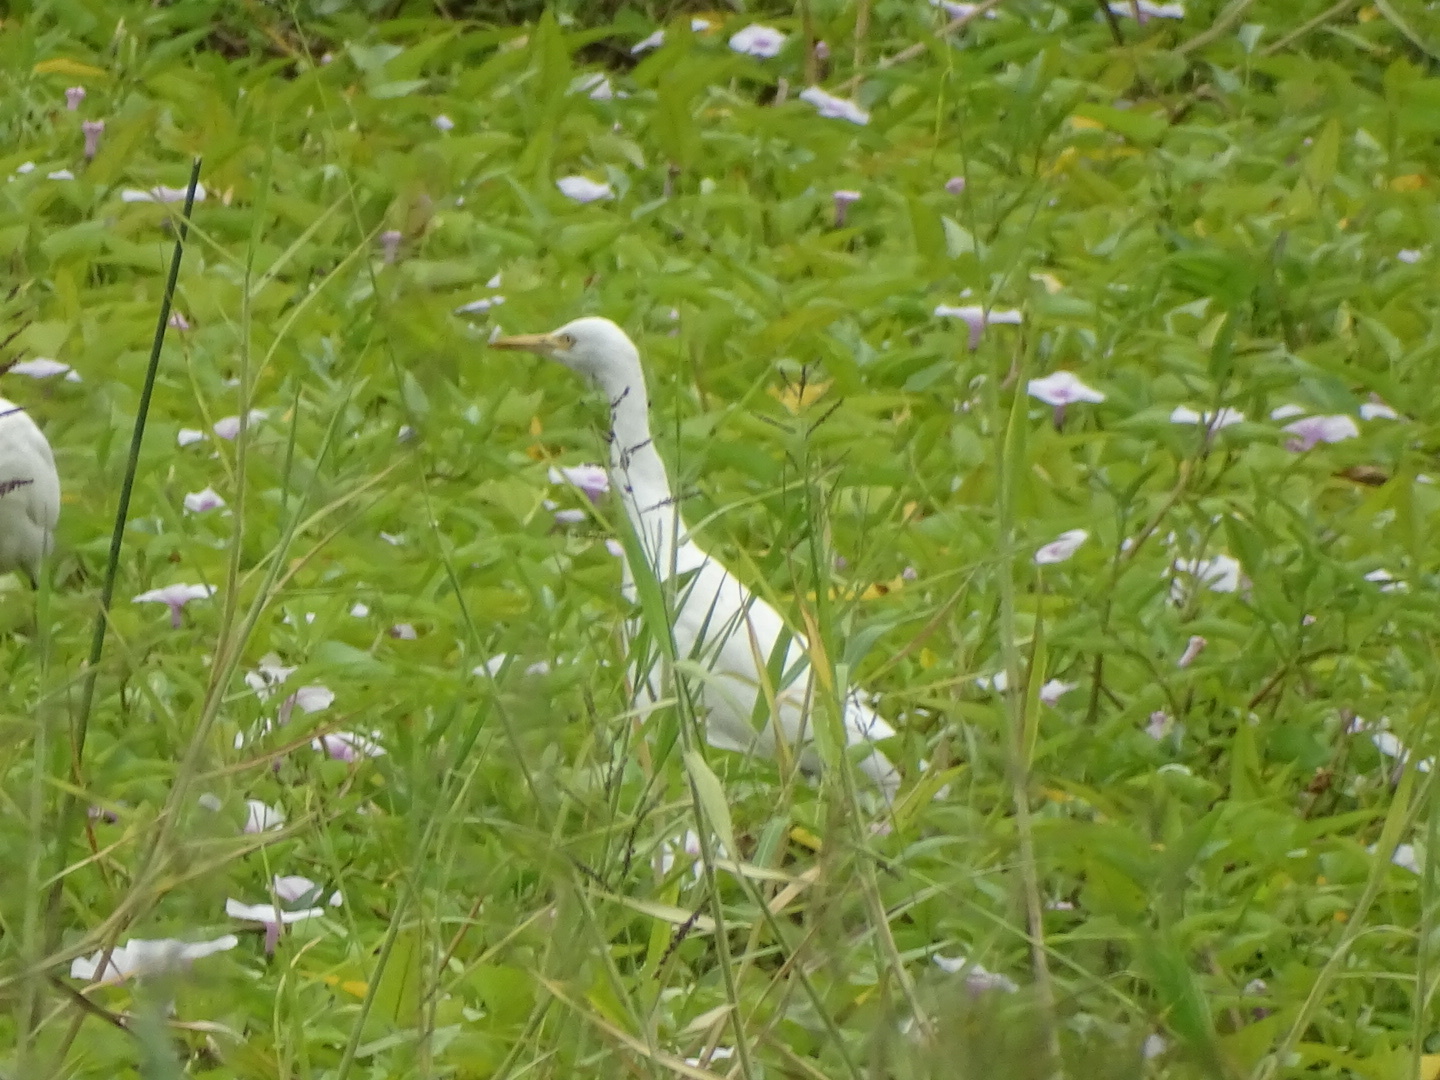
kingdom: Animalia
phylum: Chordata
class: Aves
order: Pelecaniformes
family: Ardeidae
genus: Bubulcus
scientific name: Bubulcus coromandus
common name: Eastern cattle egret
